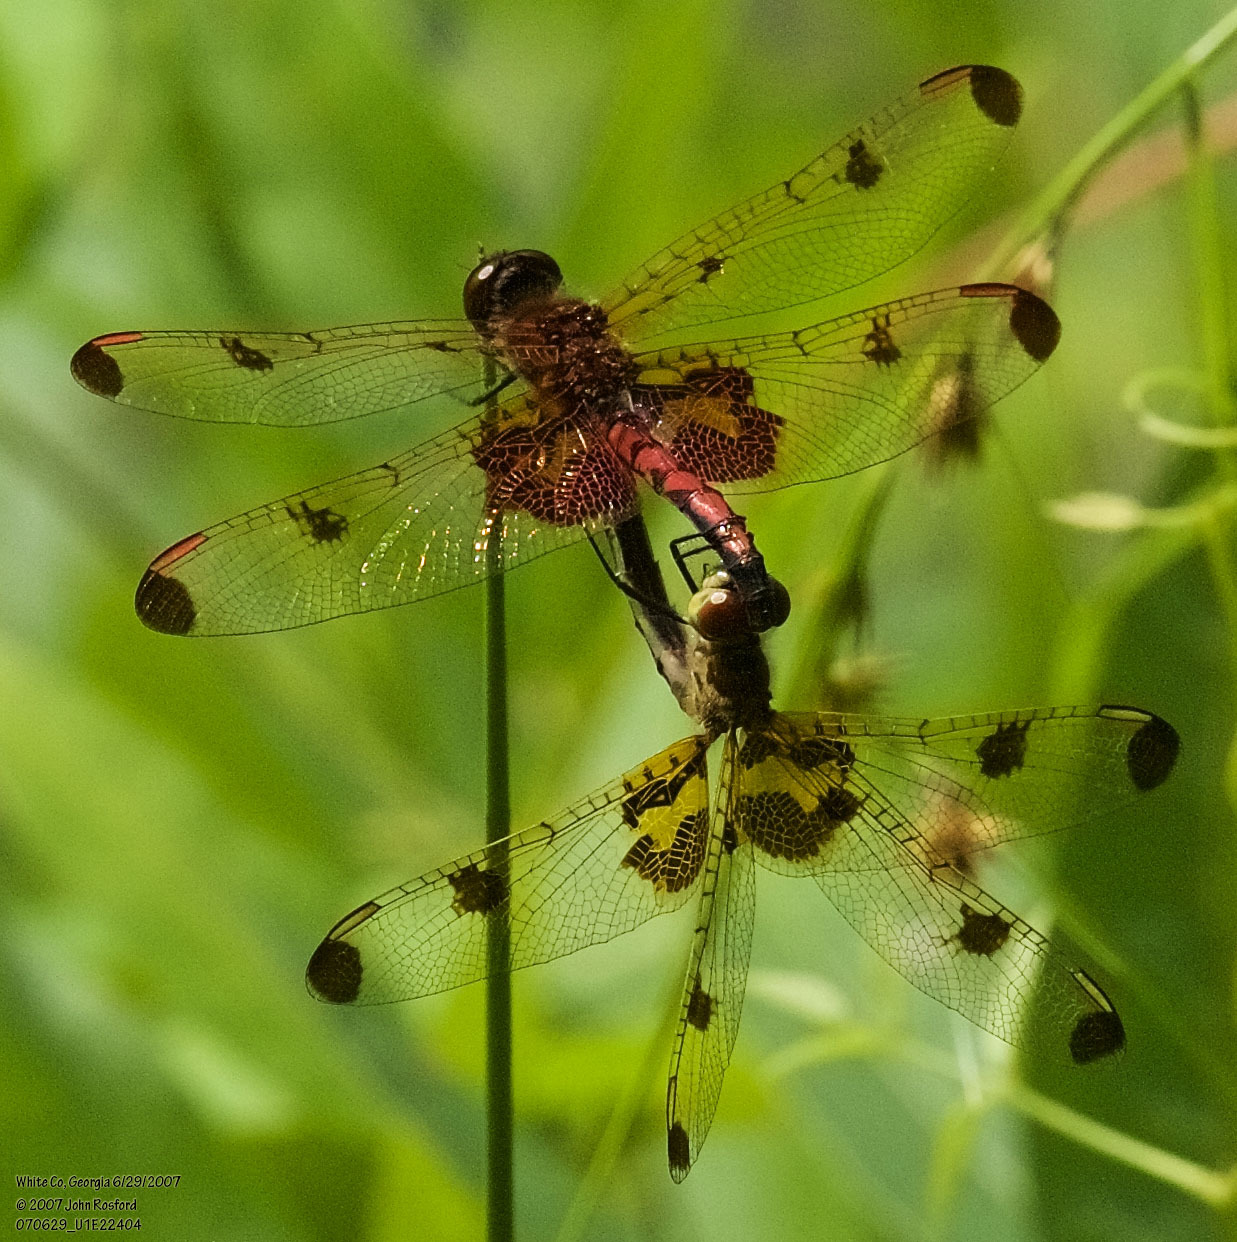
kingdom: Animalia
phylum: Arthropoda
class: Insecta
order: Odonata
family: Libellulidae
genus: Celithemis
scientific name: Celithemis elisa
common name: Calico pennant
